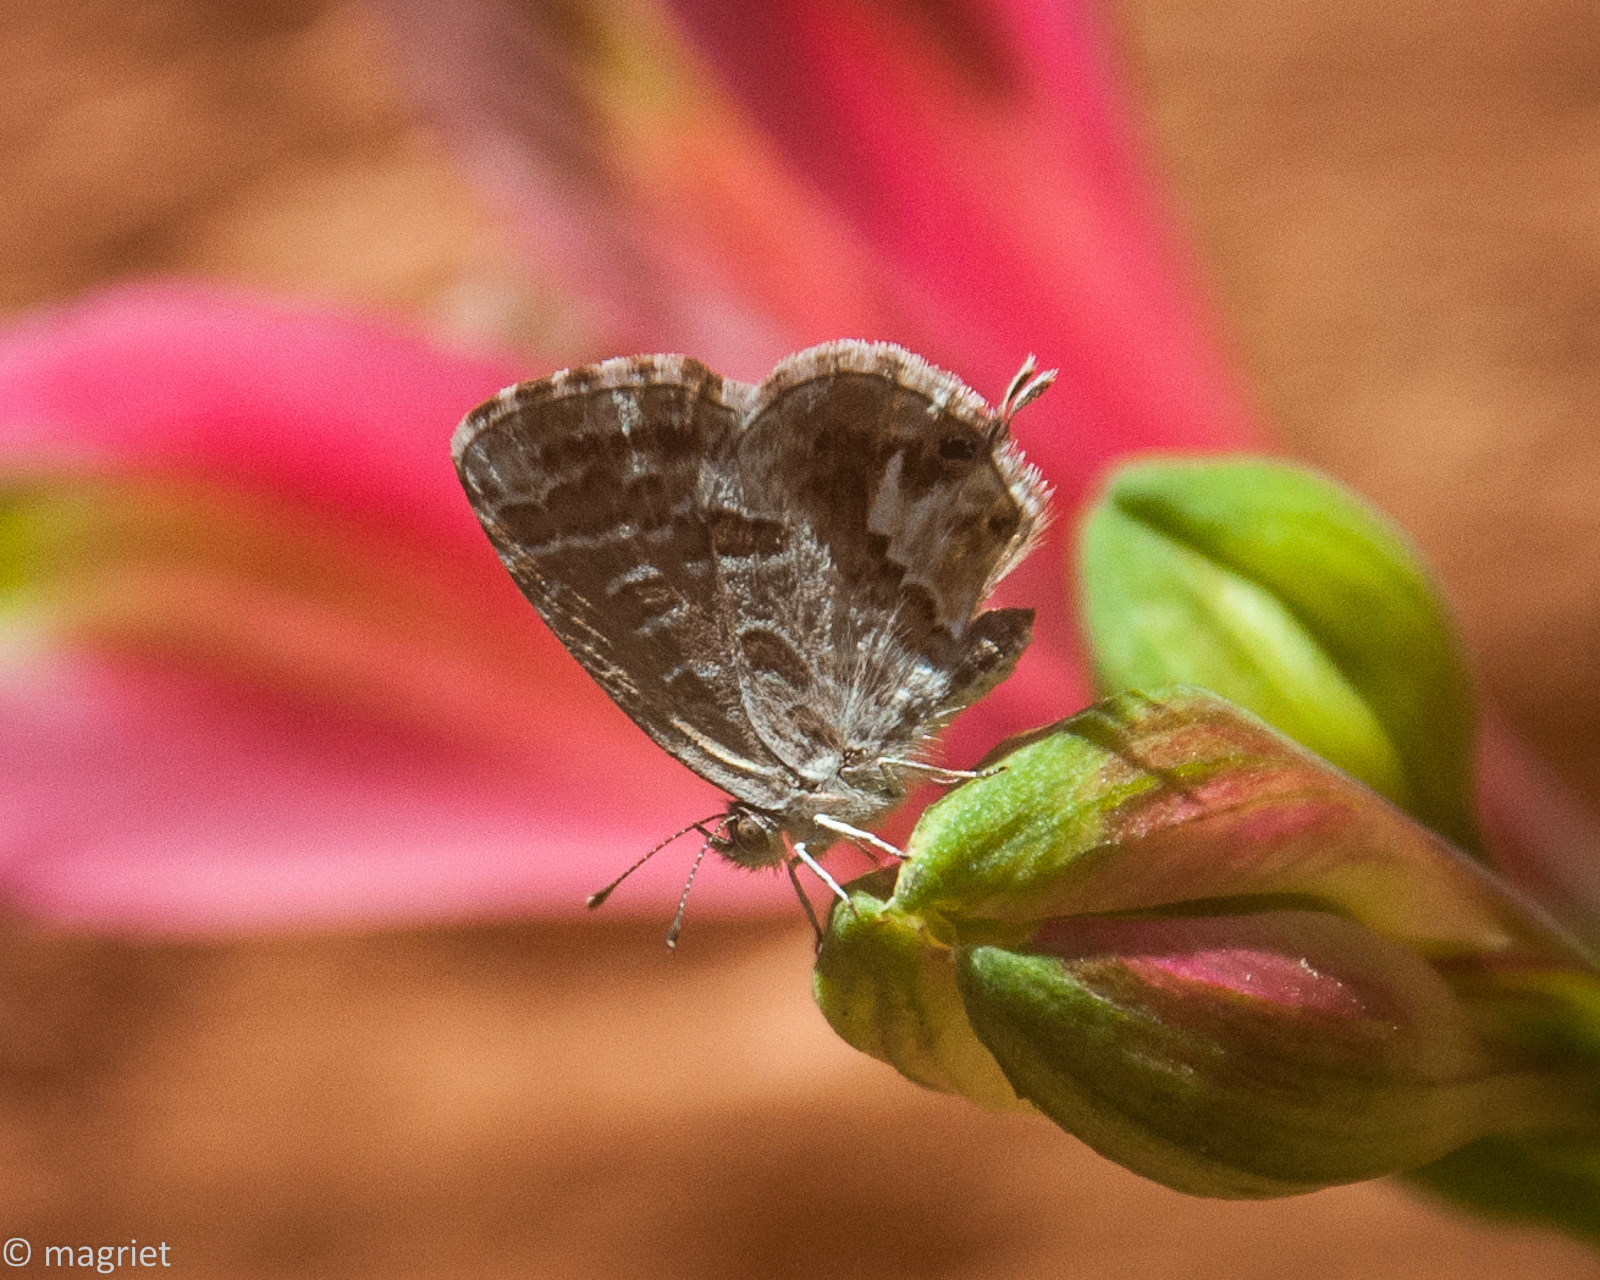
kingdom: Animalia
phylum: Arthropoda
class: Insecta
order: Lepidoptera
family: Lycaenidae
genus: Cacyreus
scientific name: Cacyreus marshalli
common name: Geranium bronze
